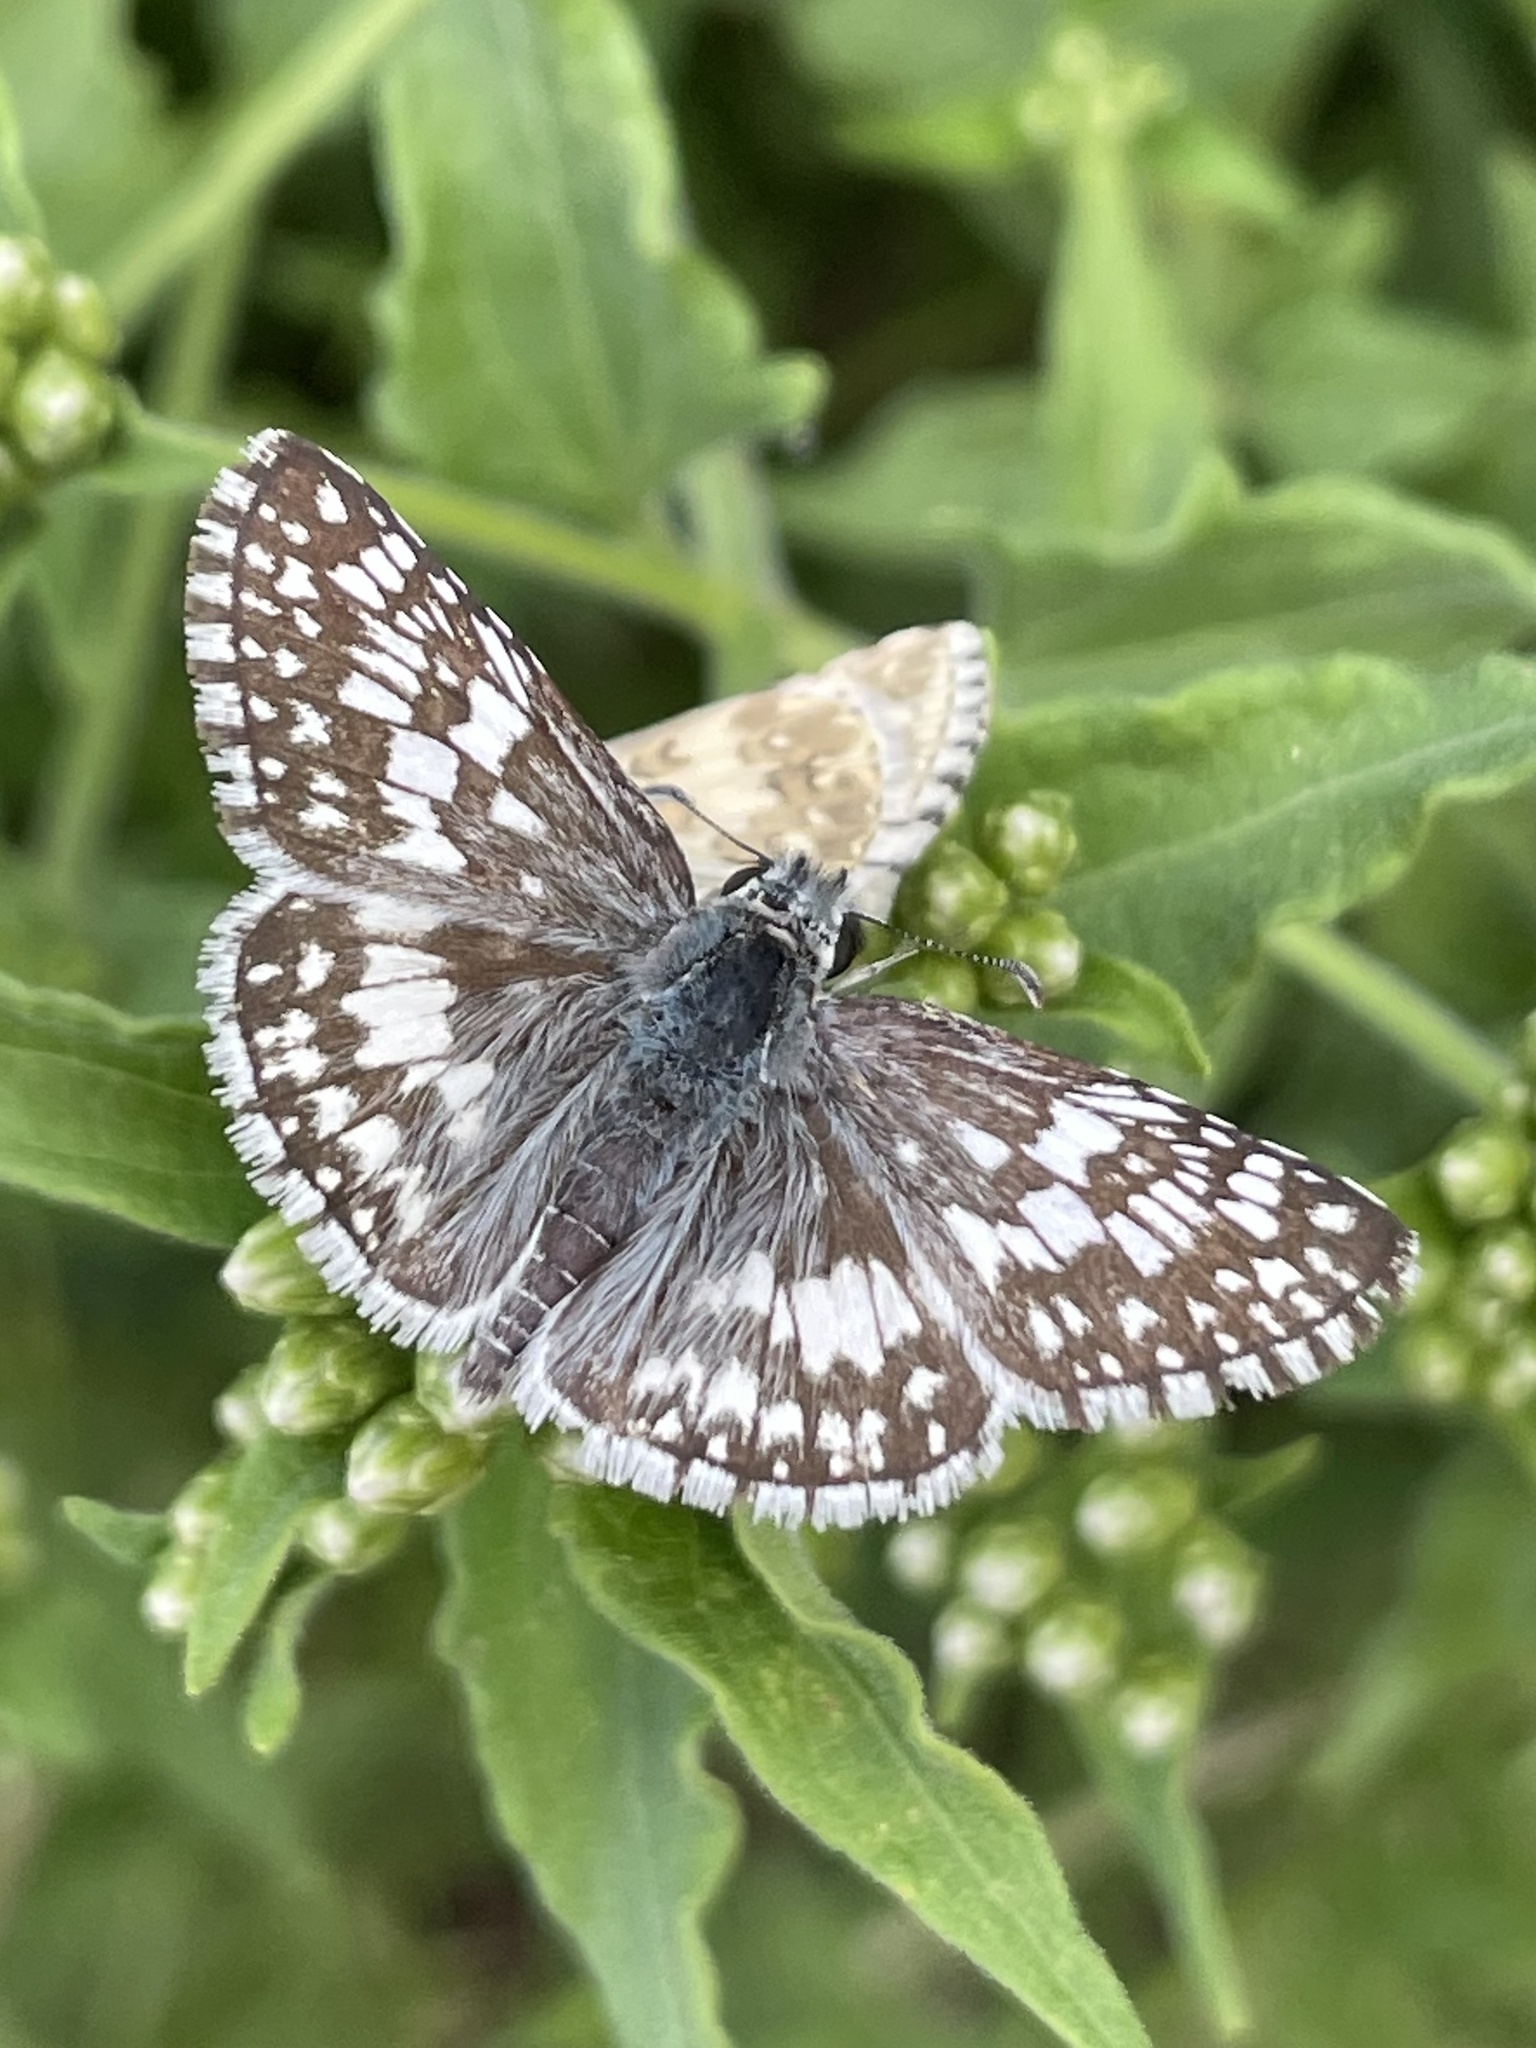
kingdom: Animalia
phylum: Arthropoda
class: Insecta
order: Lepidoptera
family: Hesperiidae
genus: Burnsius
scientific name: Burnsius
